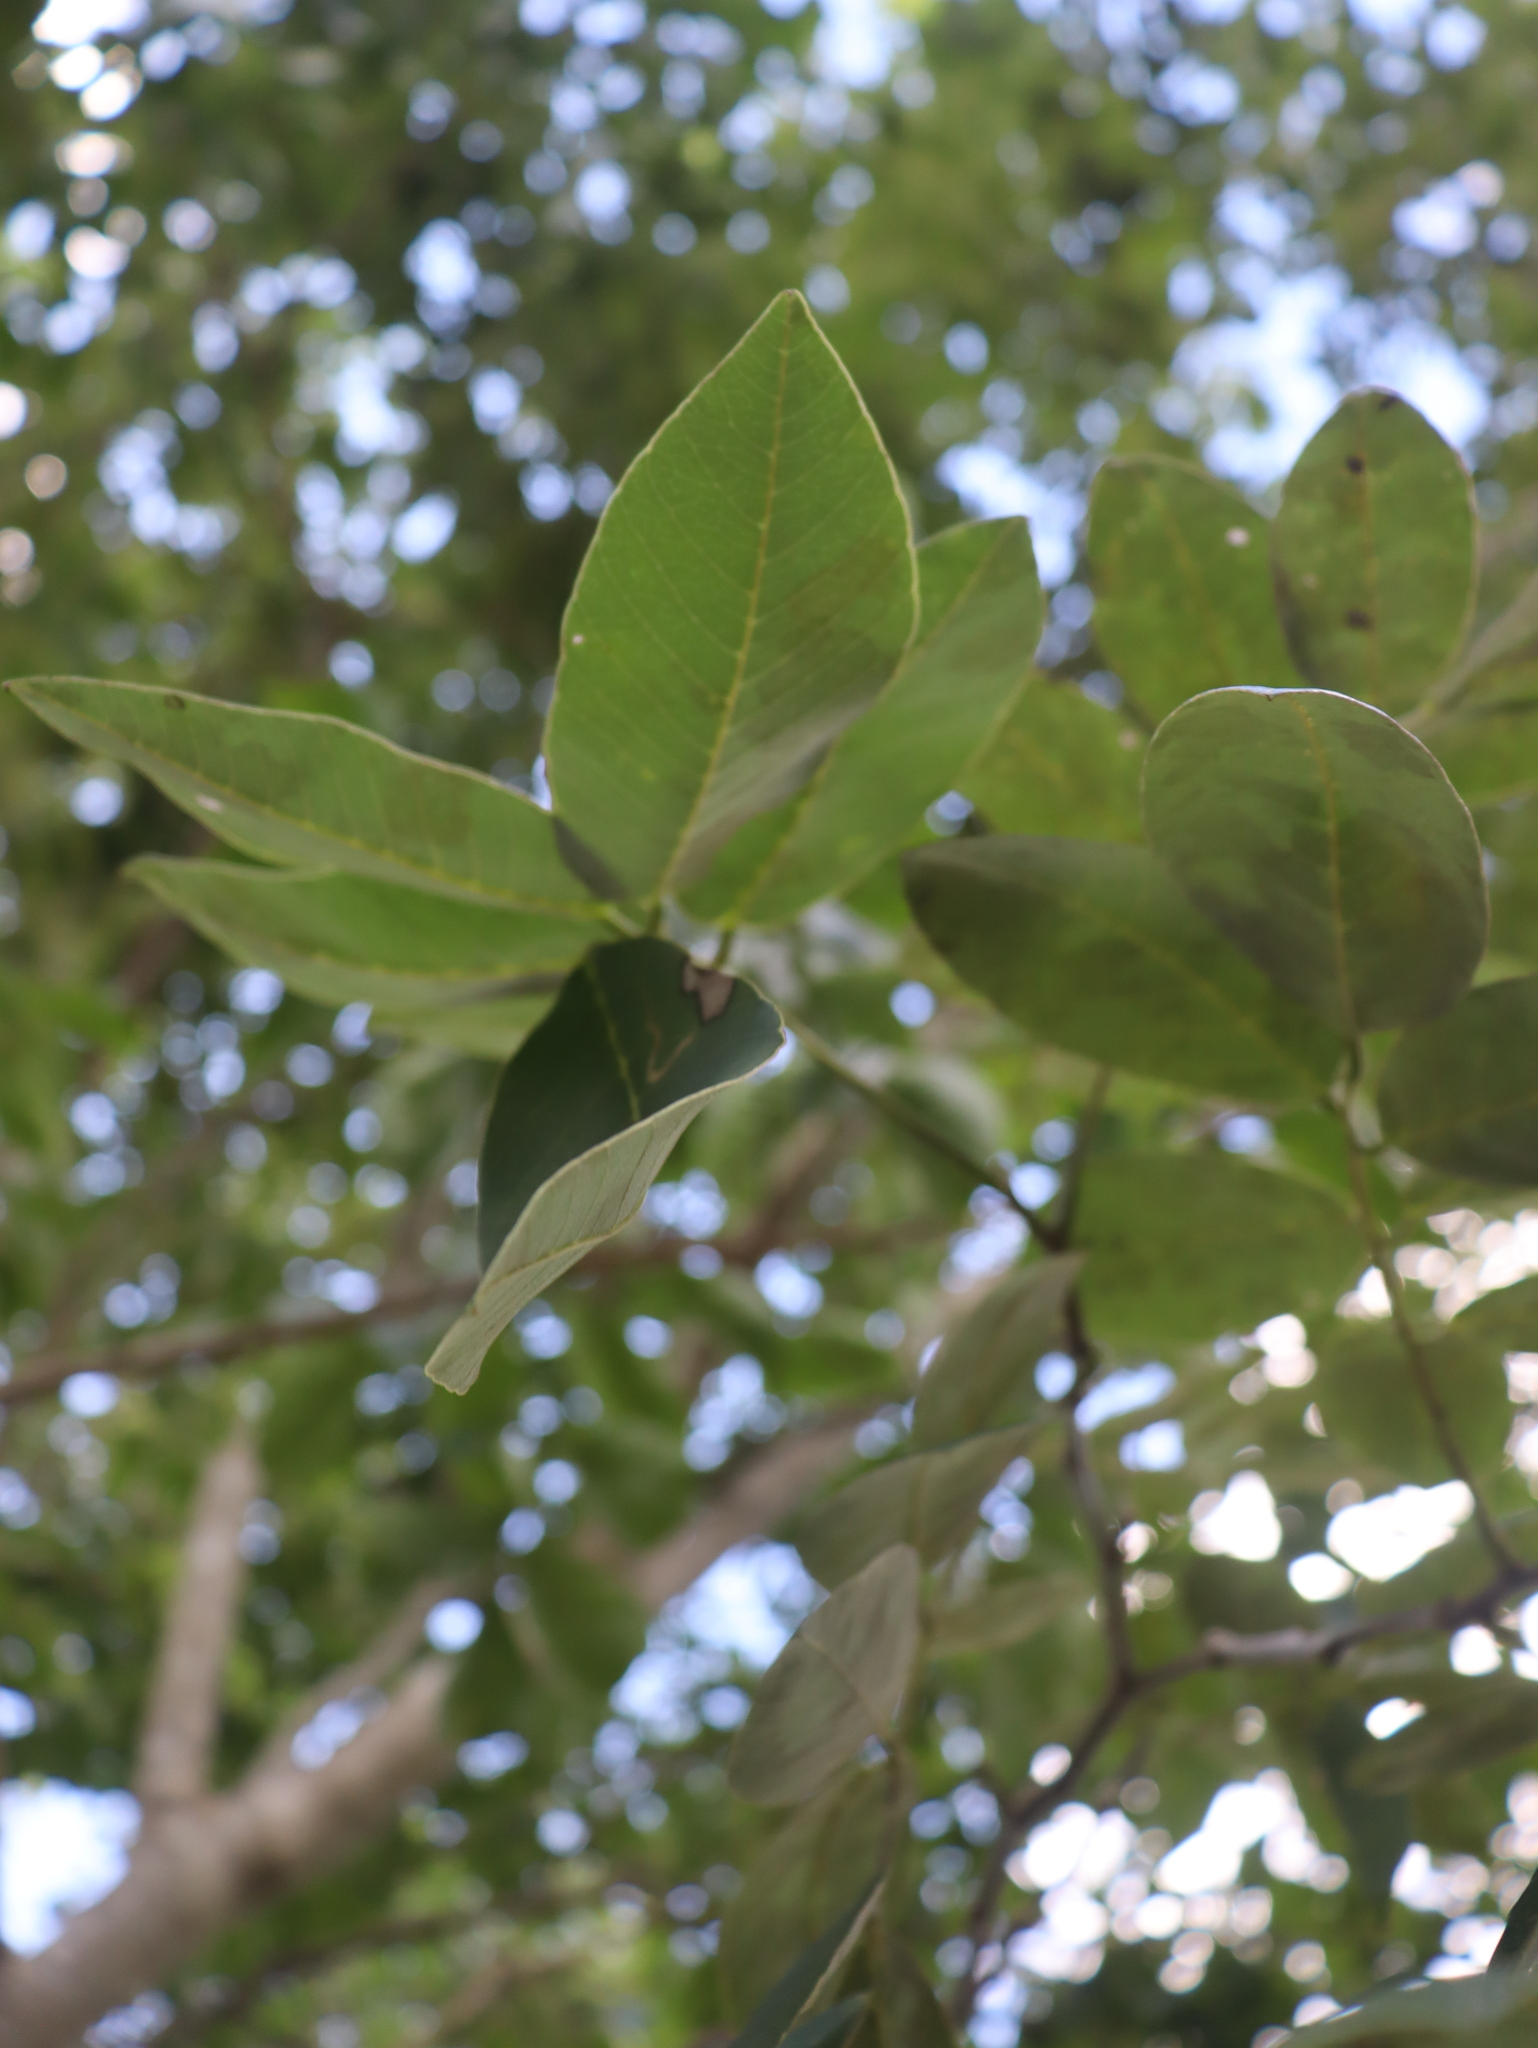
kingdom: Plantae
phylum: Tracheophyta
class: Magnoliopsida
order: Sapindales
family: Burseraceae
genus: Bursera
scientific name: Bursera simaruba
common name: Turpentine tree
